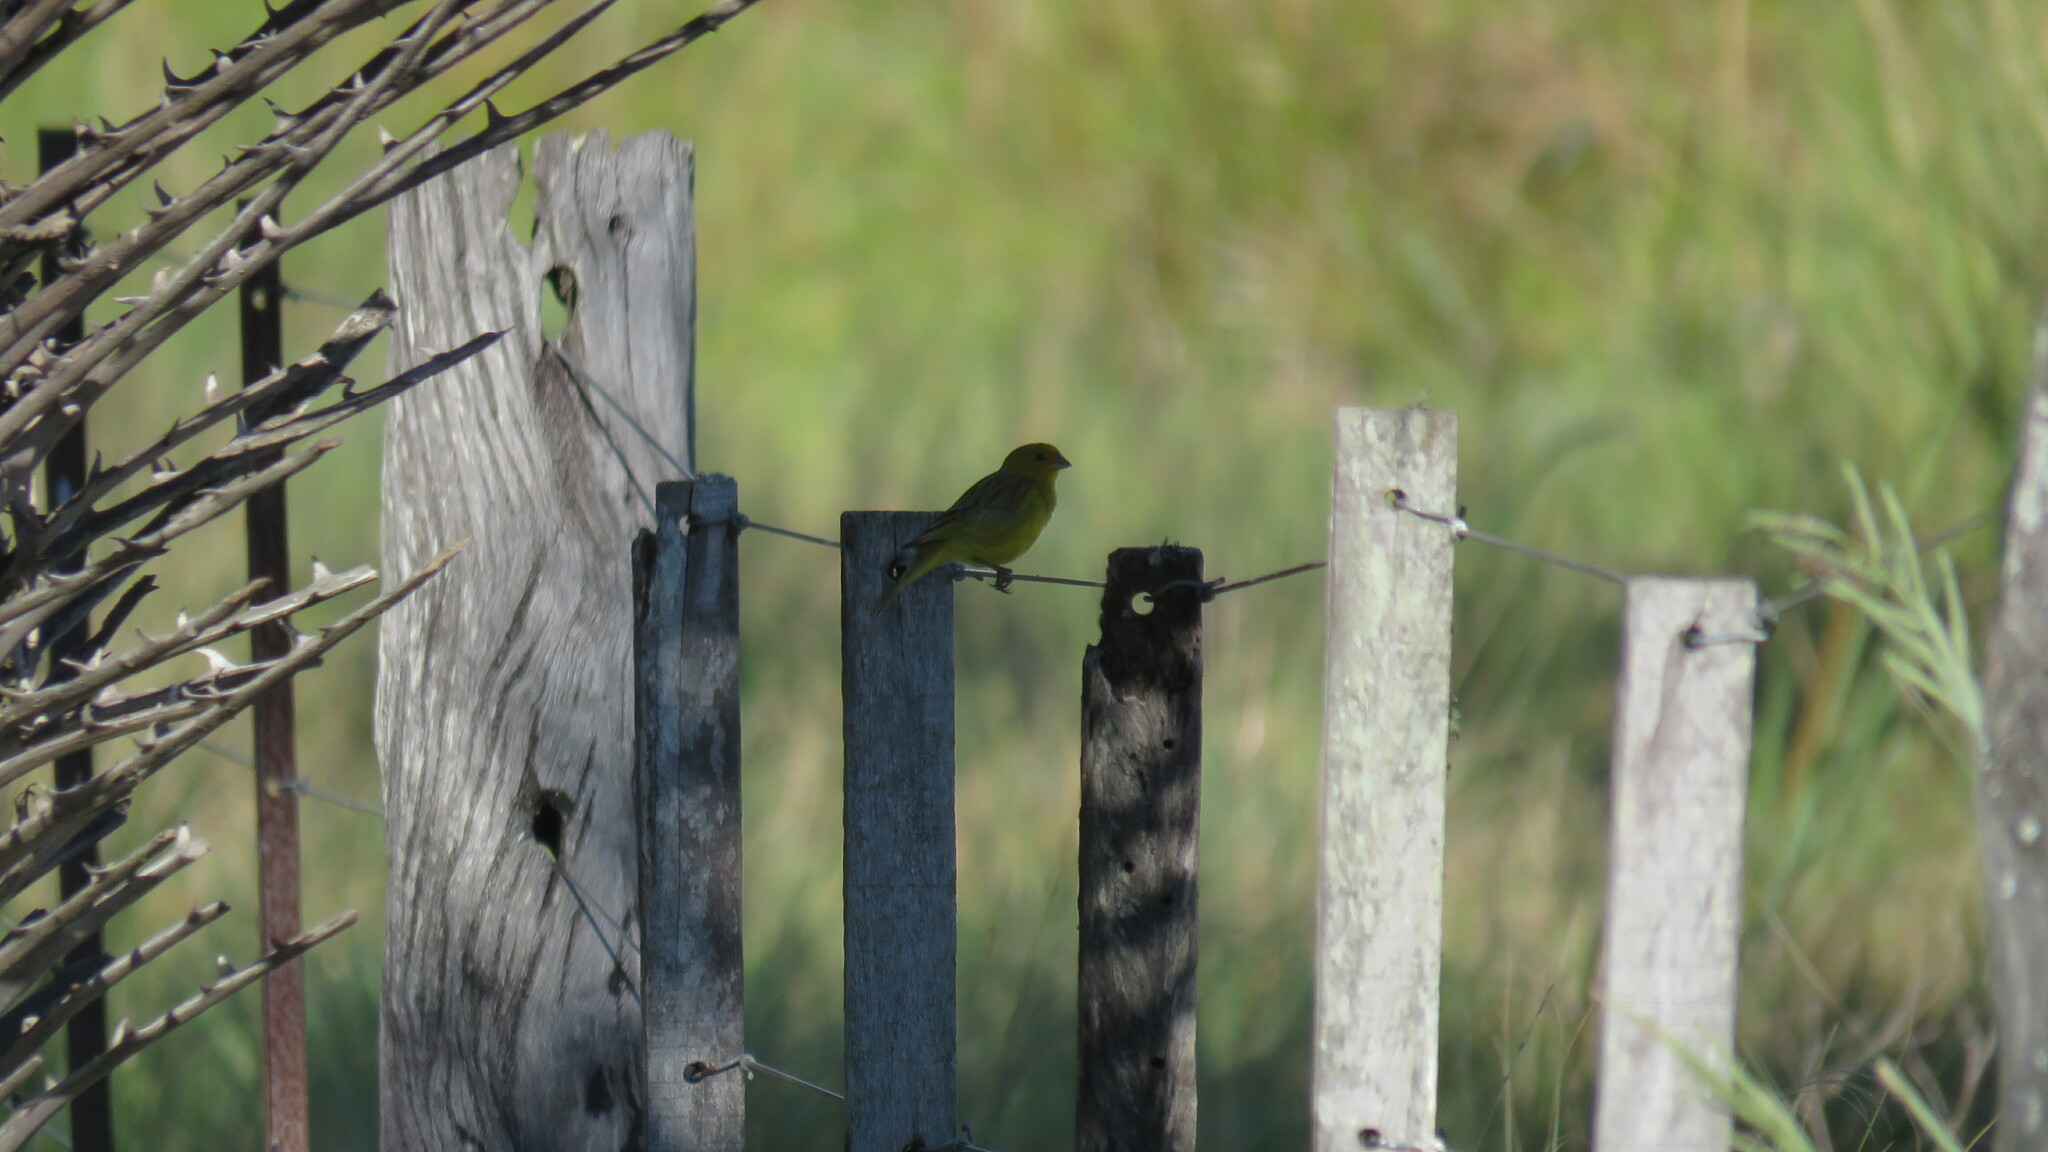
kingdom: Animalia
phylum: Chordata
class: Aves
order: Passeriformes
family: Thraupidae
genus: Sicalis
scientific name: Sicalis flaveola
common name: Saffron finch
